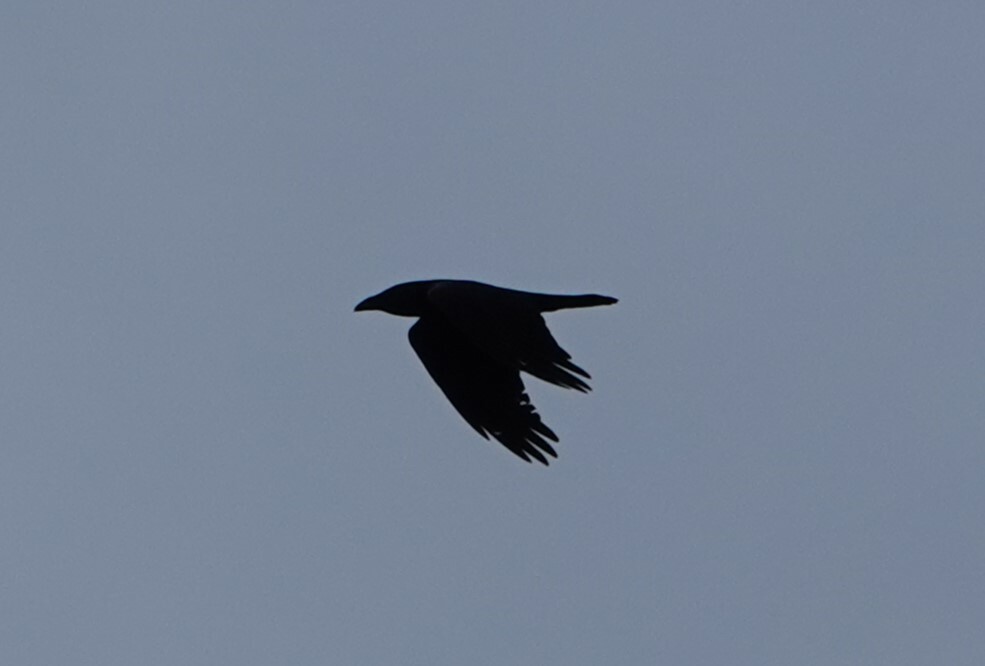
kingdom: Animalia
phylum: Chordata
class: Aves
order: Passeriformes
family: Corvidae
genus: Corvus
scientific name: Corvus corax
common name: Common raven
